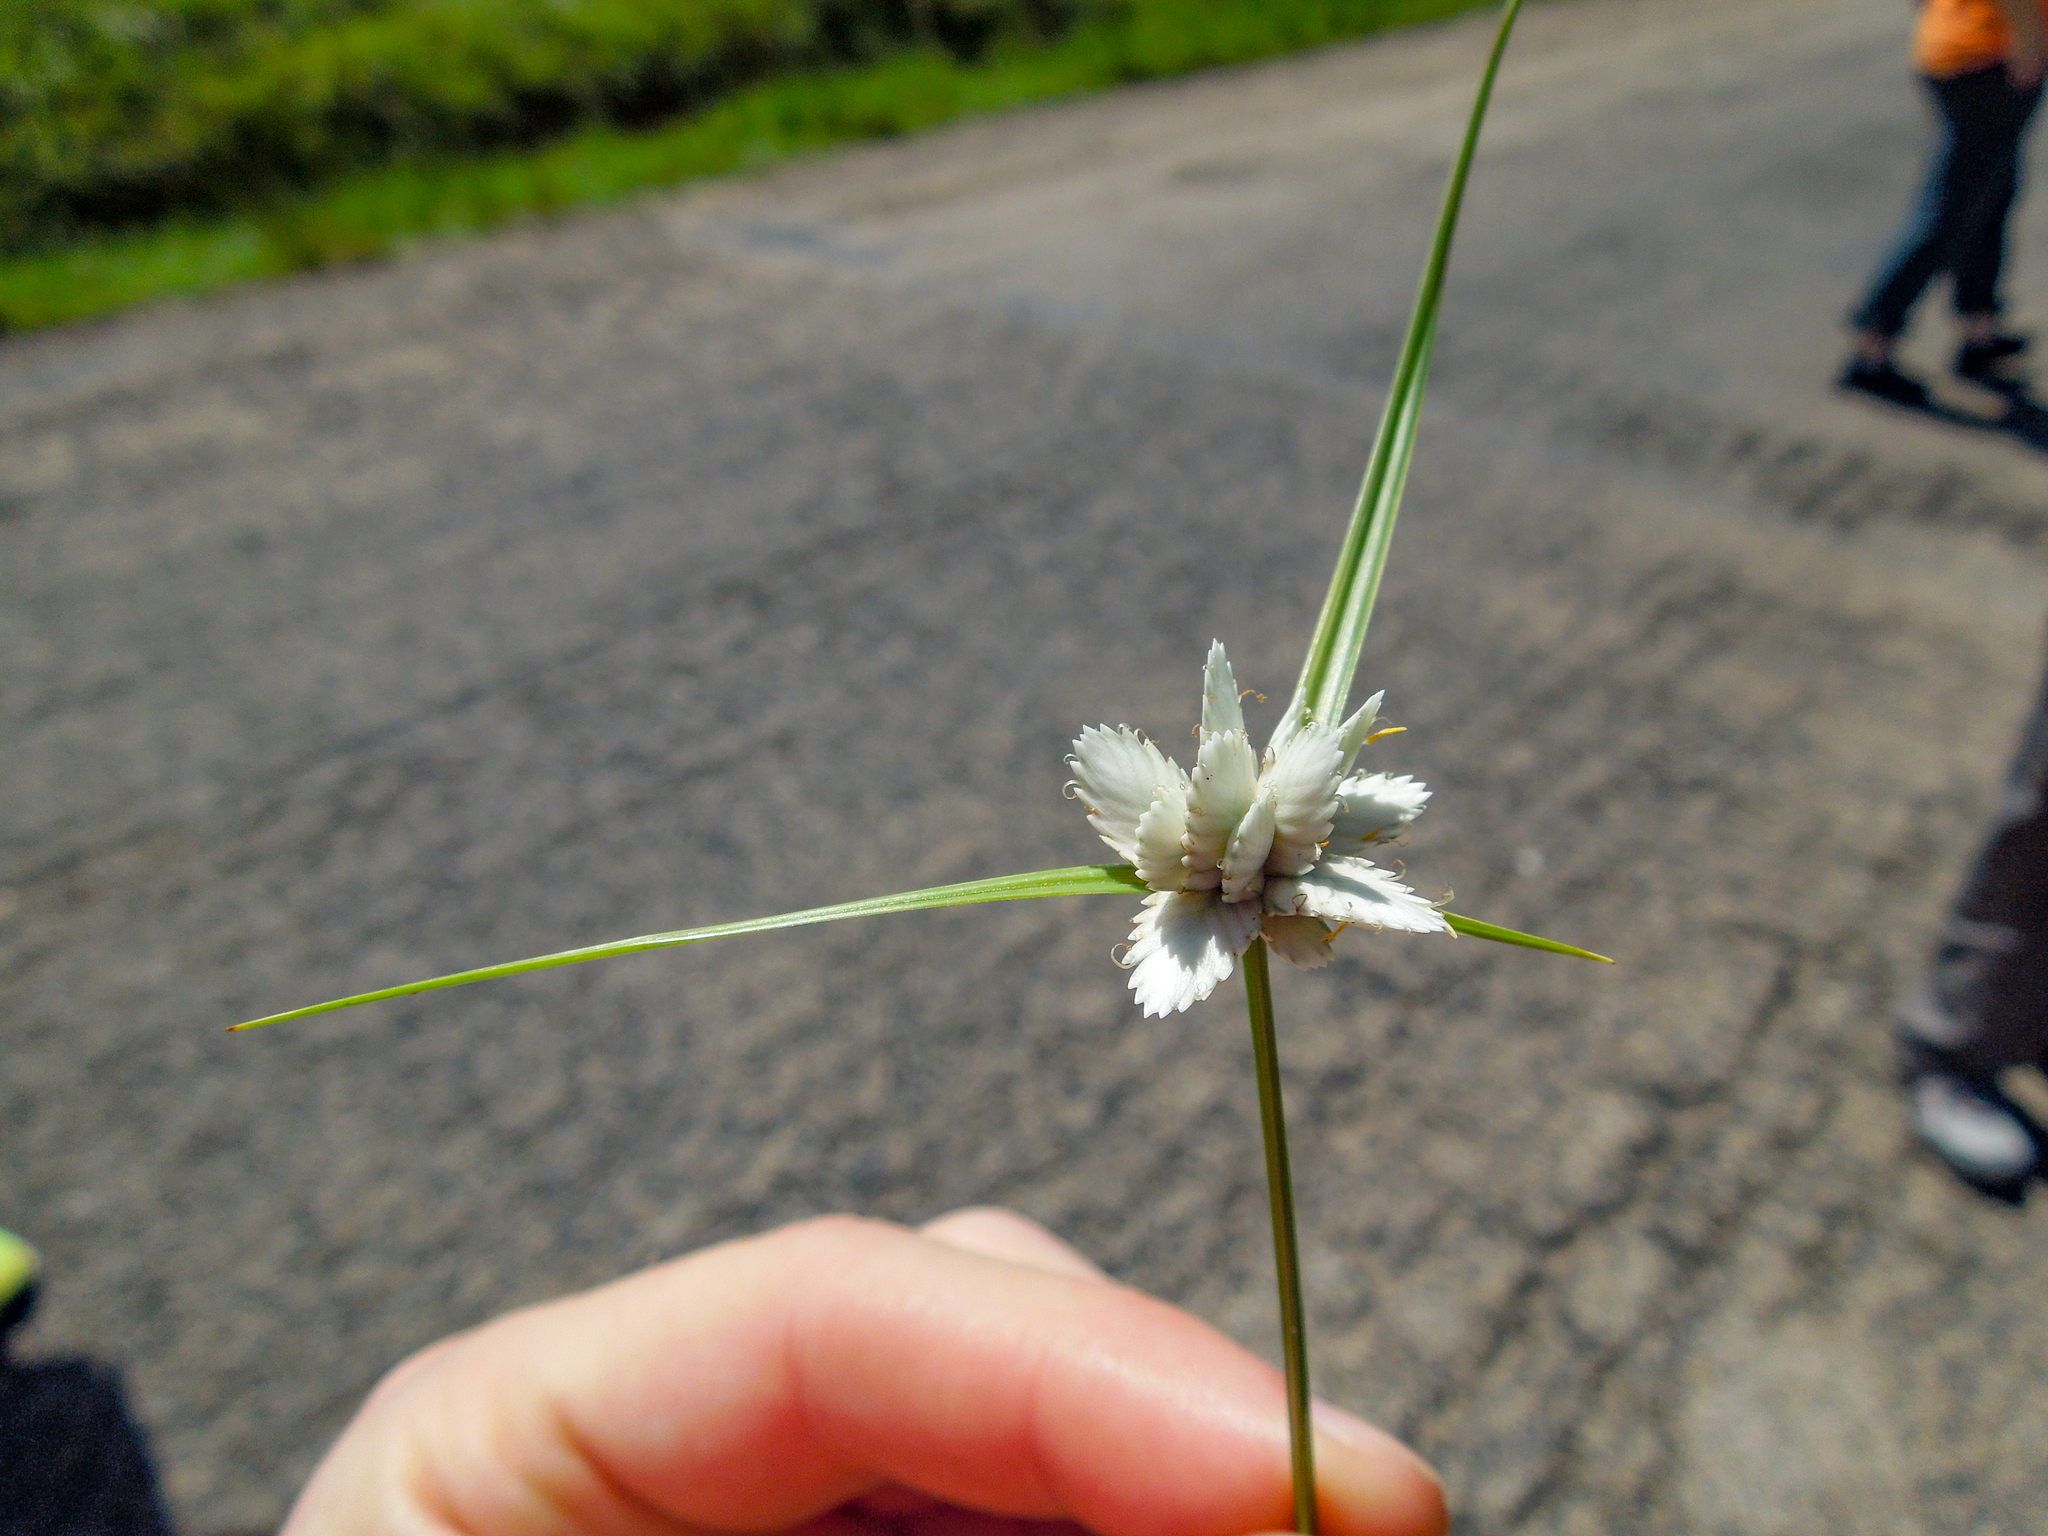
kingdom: Plantae
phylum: Tracheophyta
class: Liliopsida
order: Poales
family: Cyperaceae
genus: Cyperus
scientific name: Cyperus niveus
